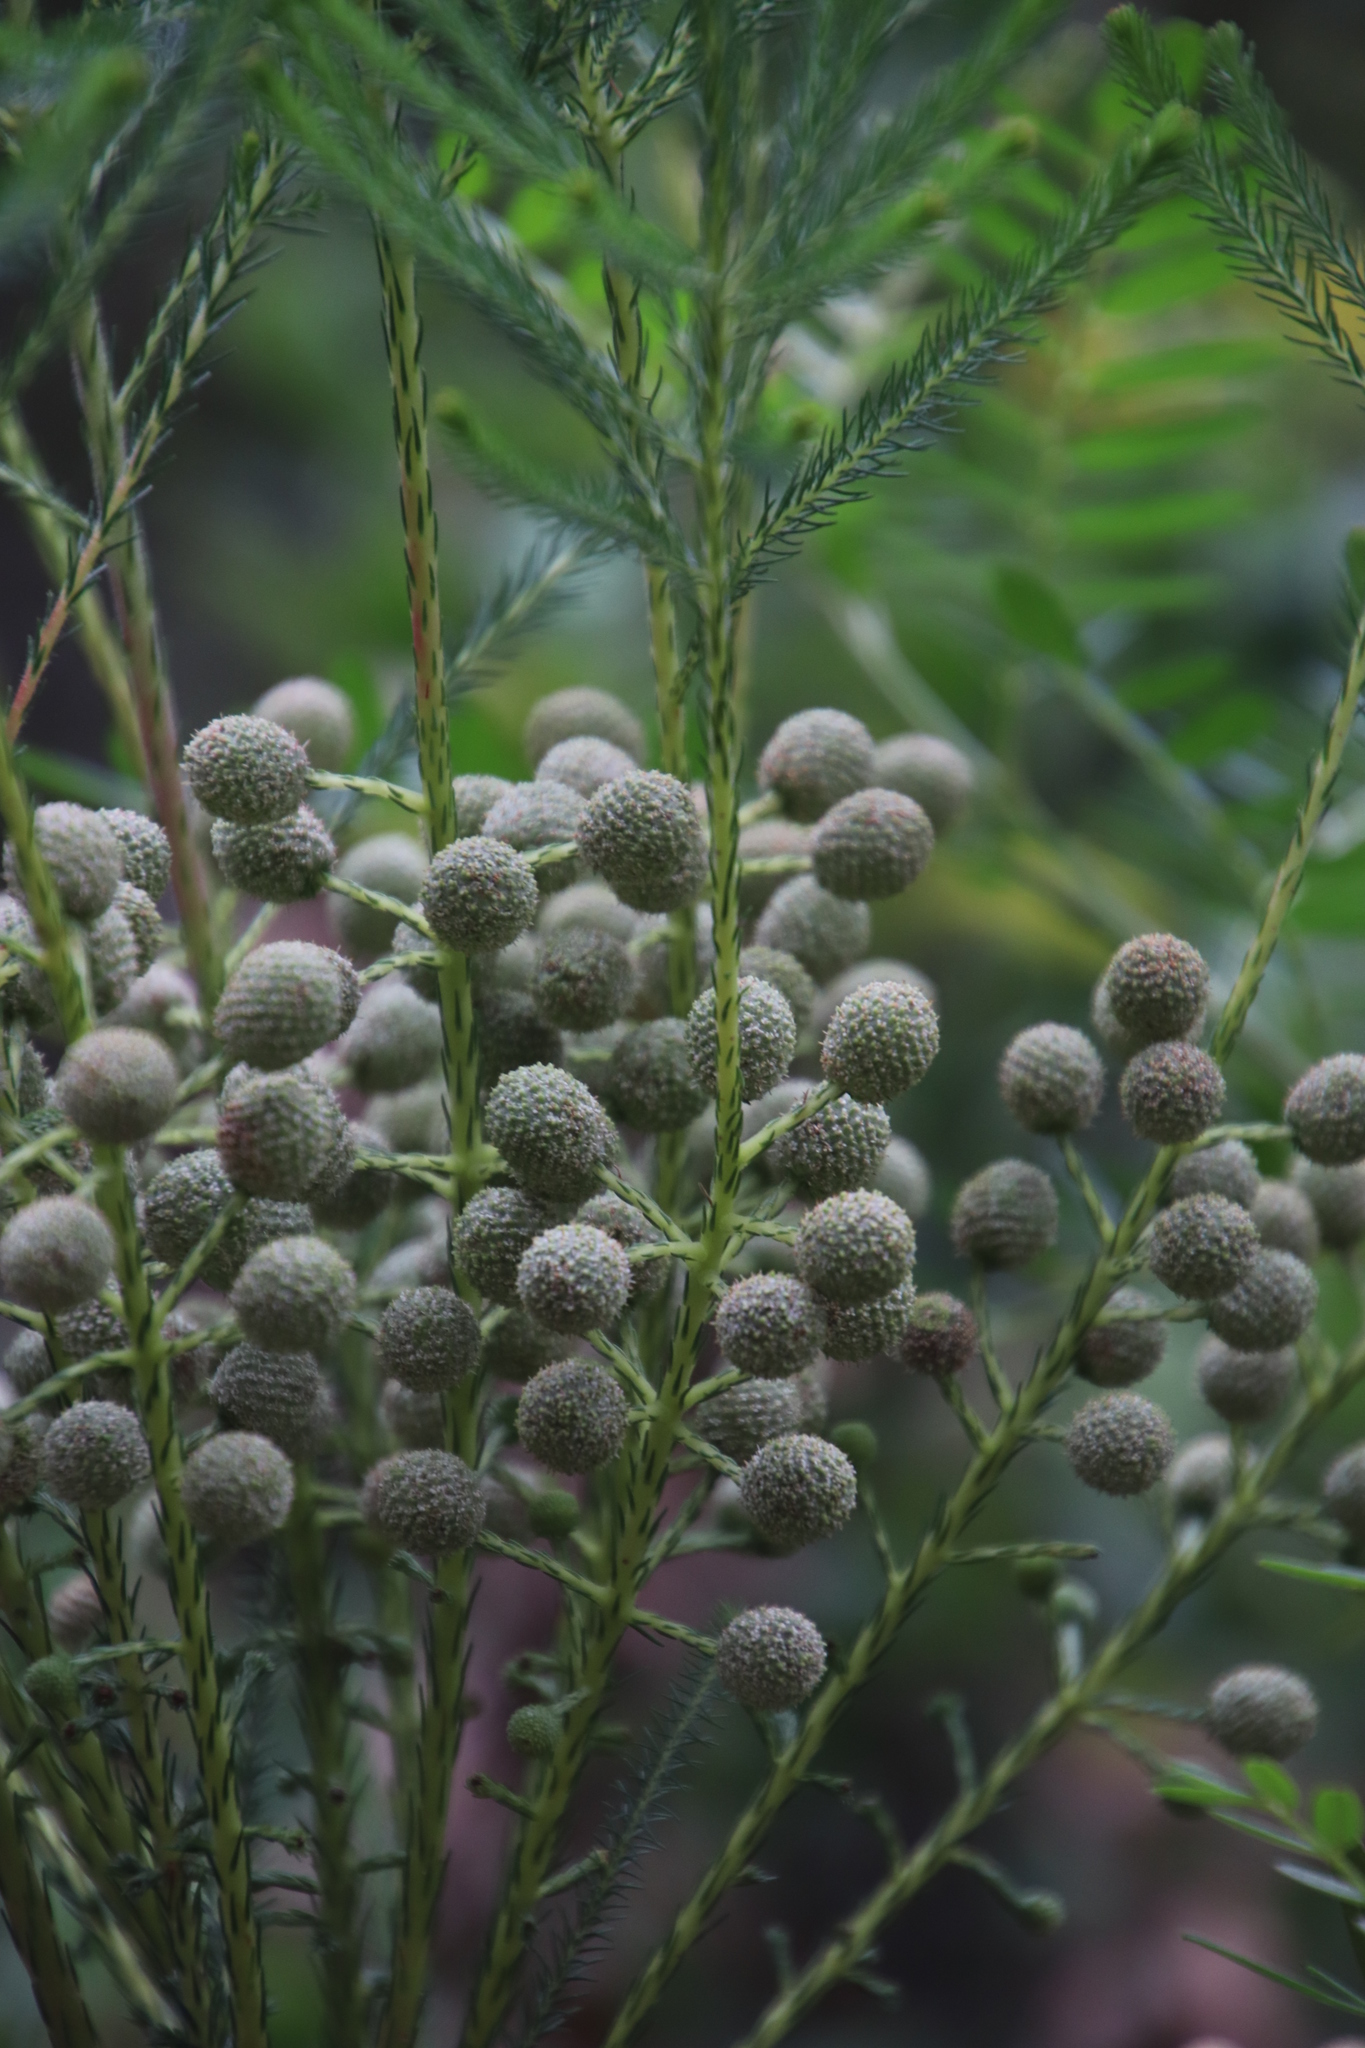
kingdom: Plantae
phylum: Tracheophyta
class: Magnoliopsida
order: Bruniales
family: Bruniaceae
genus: Berzelia
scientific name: Berzelia lanuginosa
